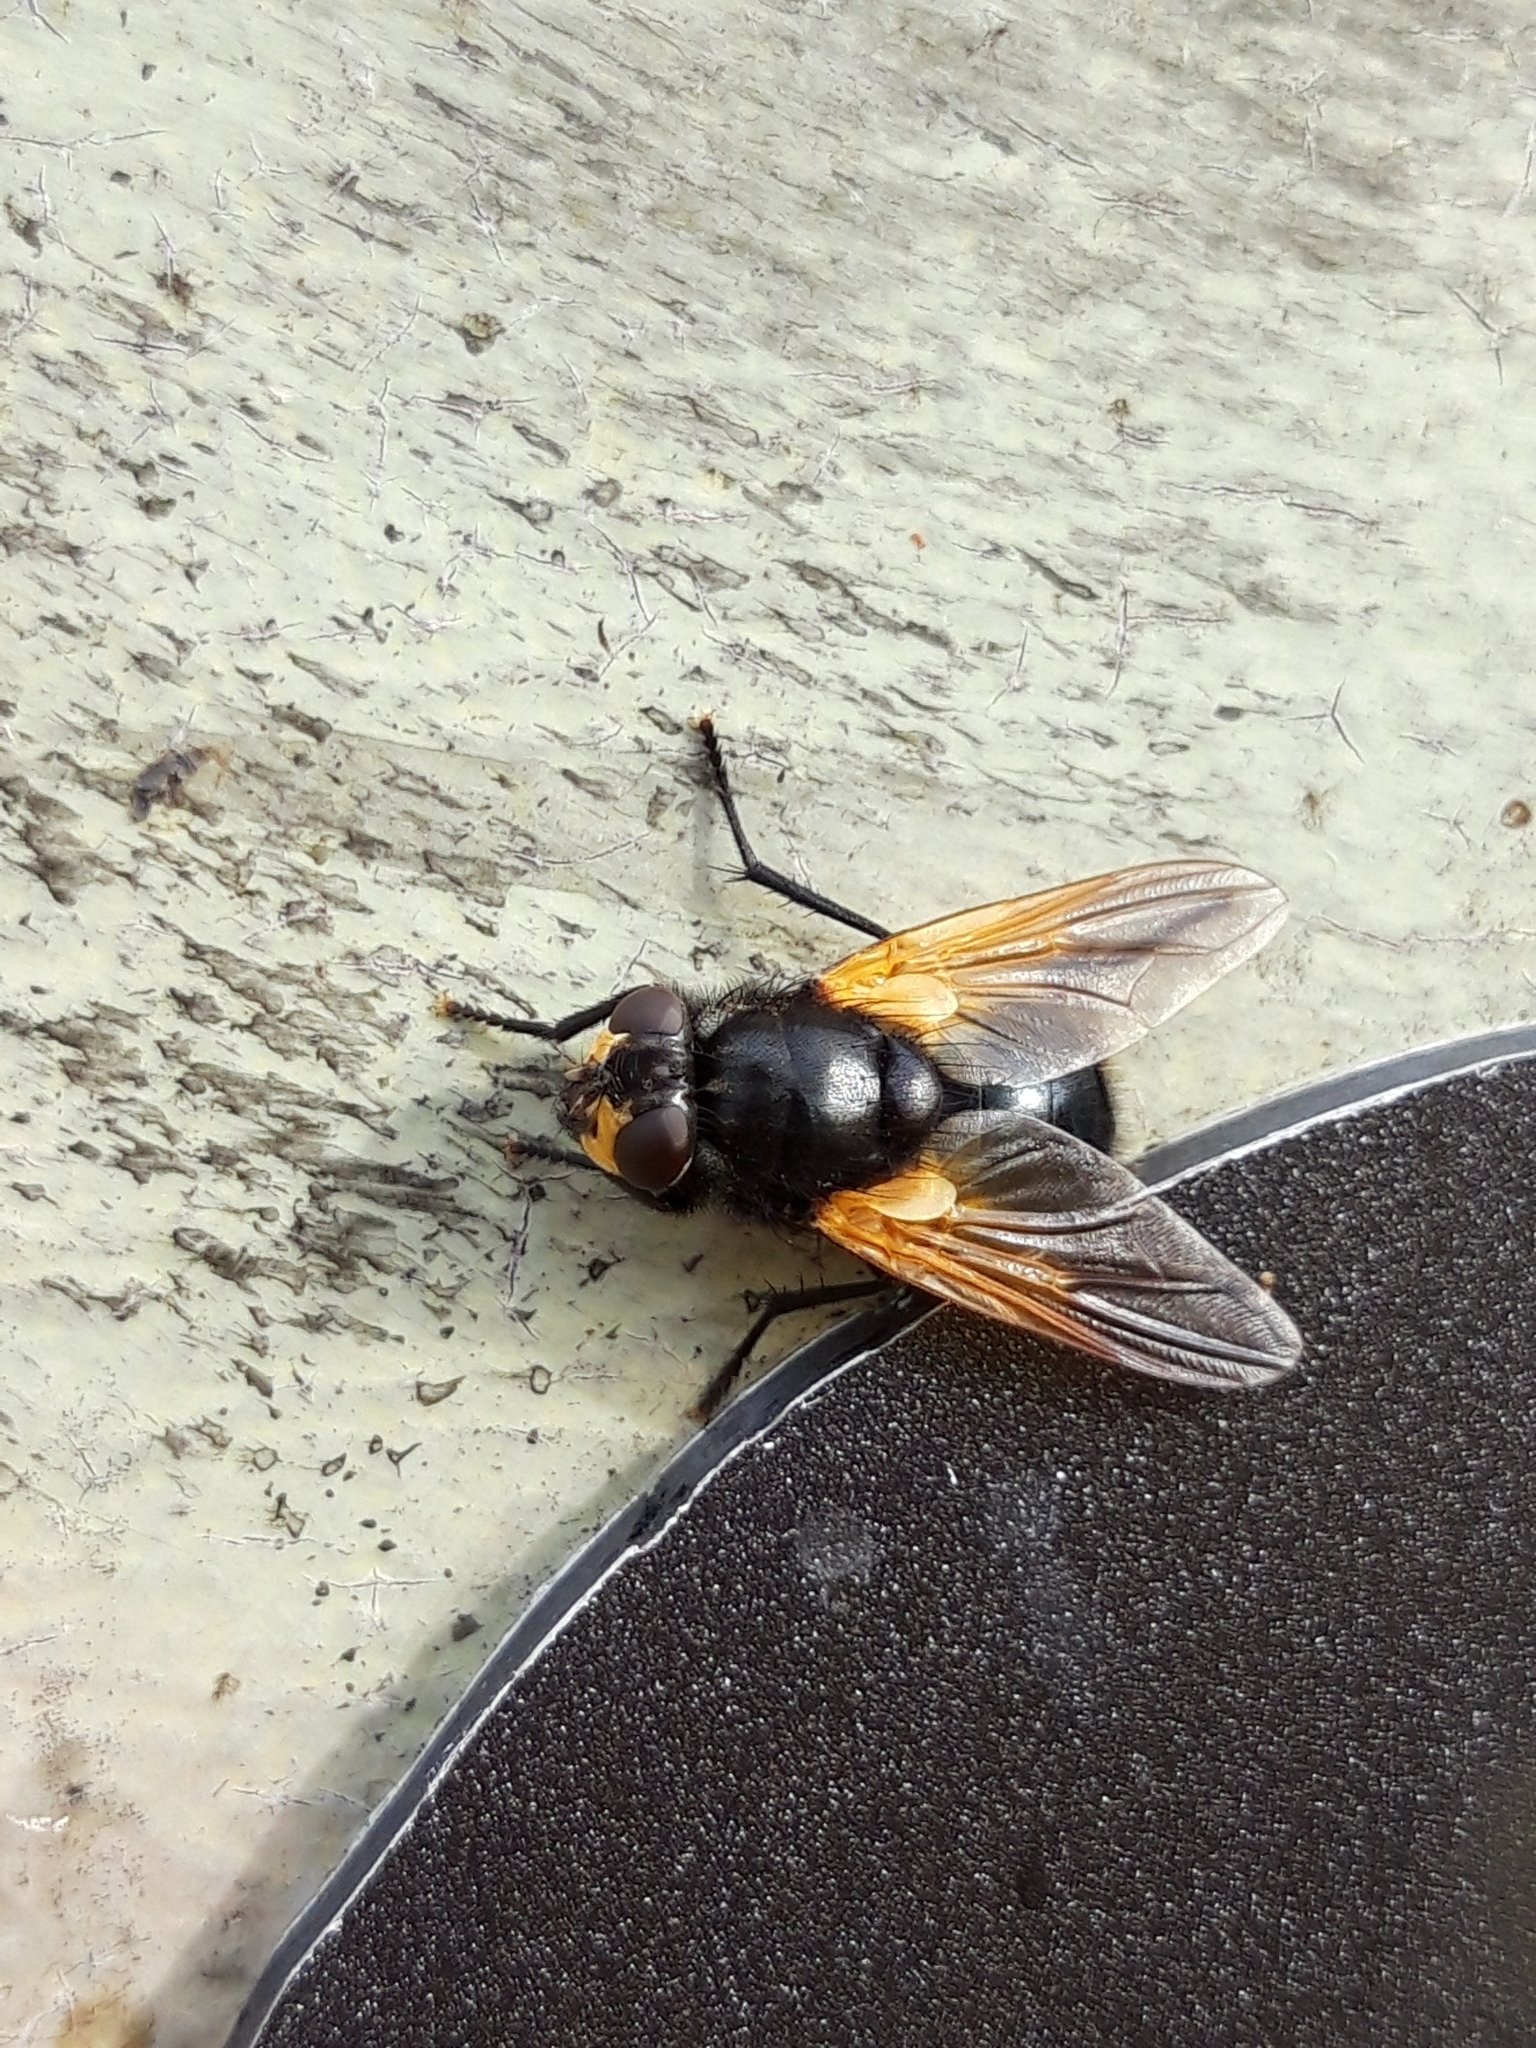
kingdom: Animalia
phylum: Arthropoda
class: Insecta
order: Diptera
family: Muscidae
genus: Mesembrina
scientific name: Mesembrina meridiana
